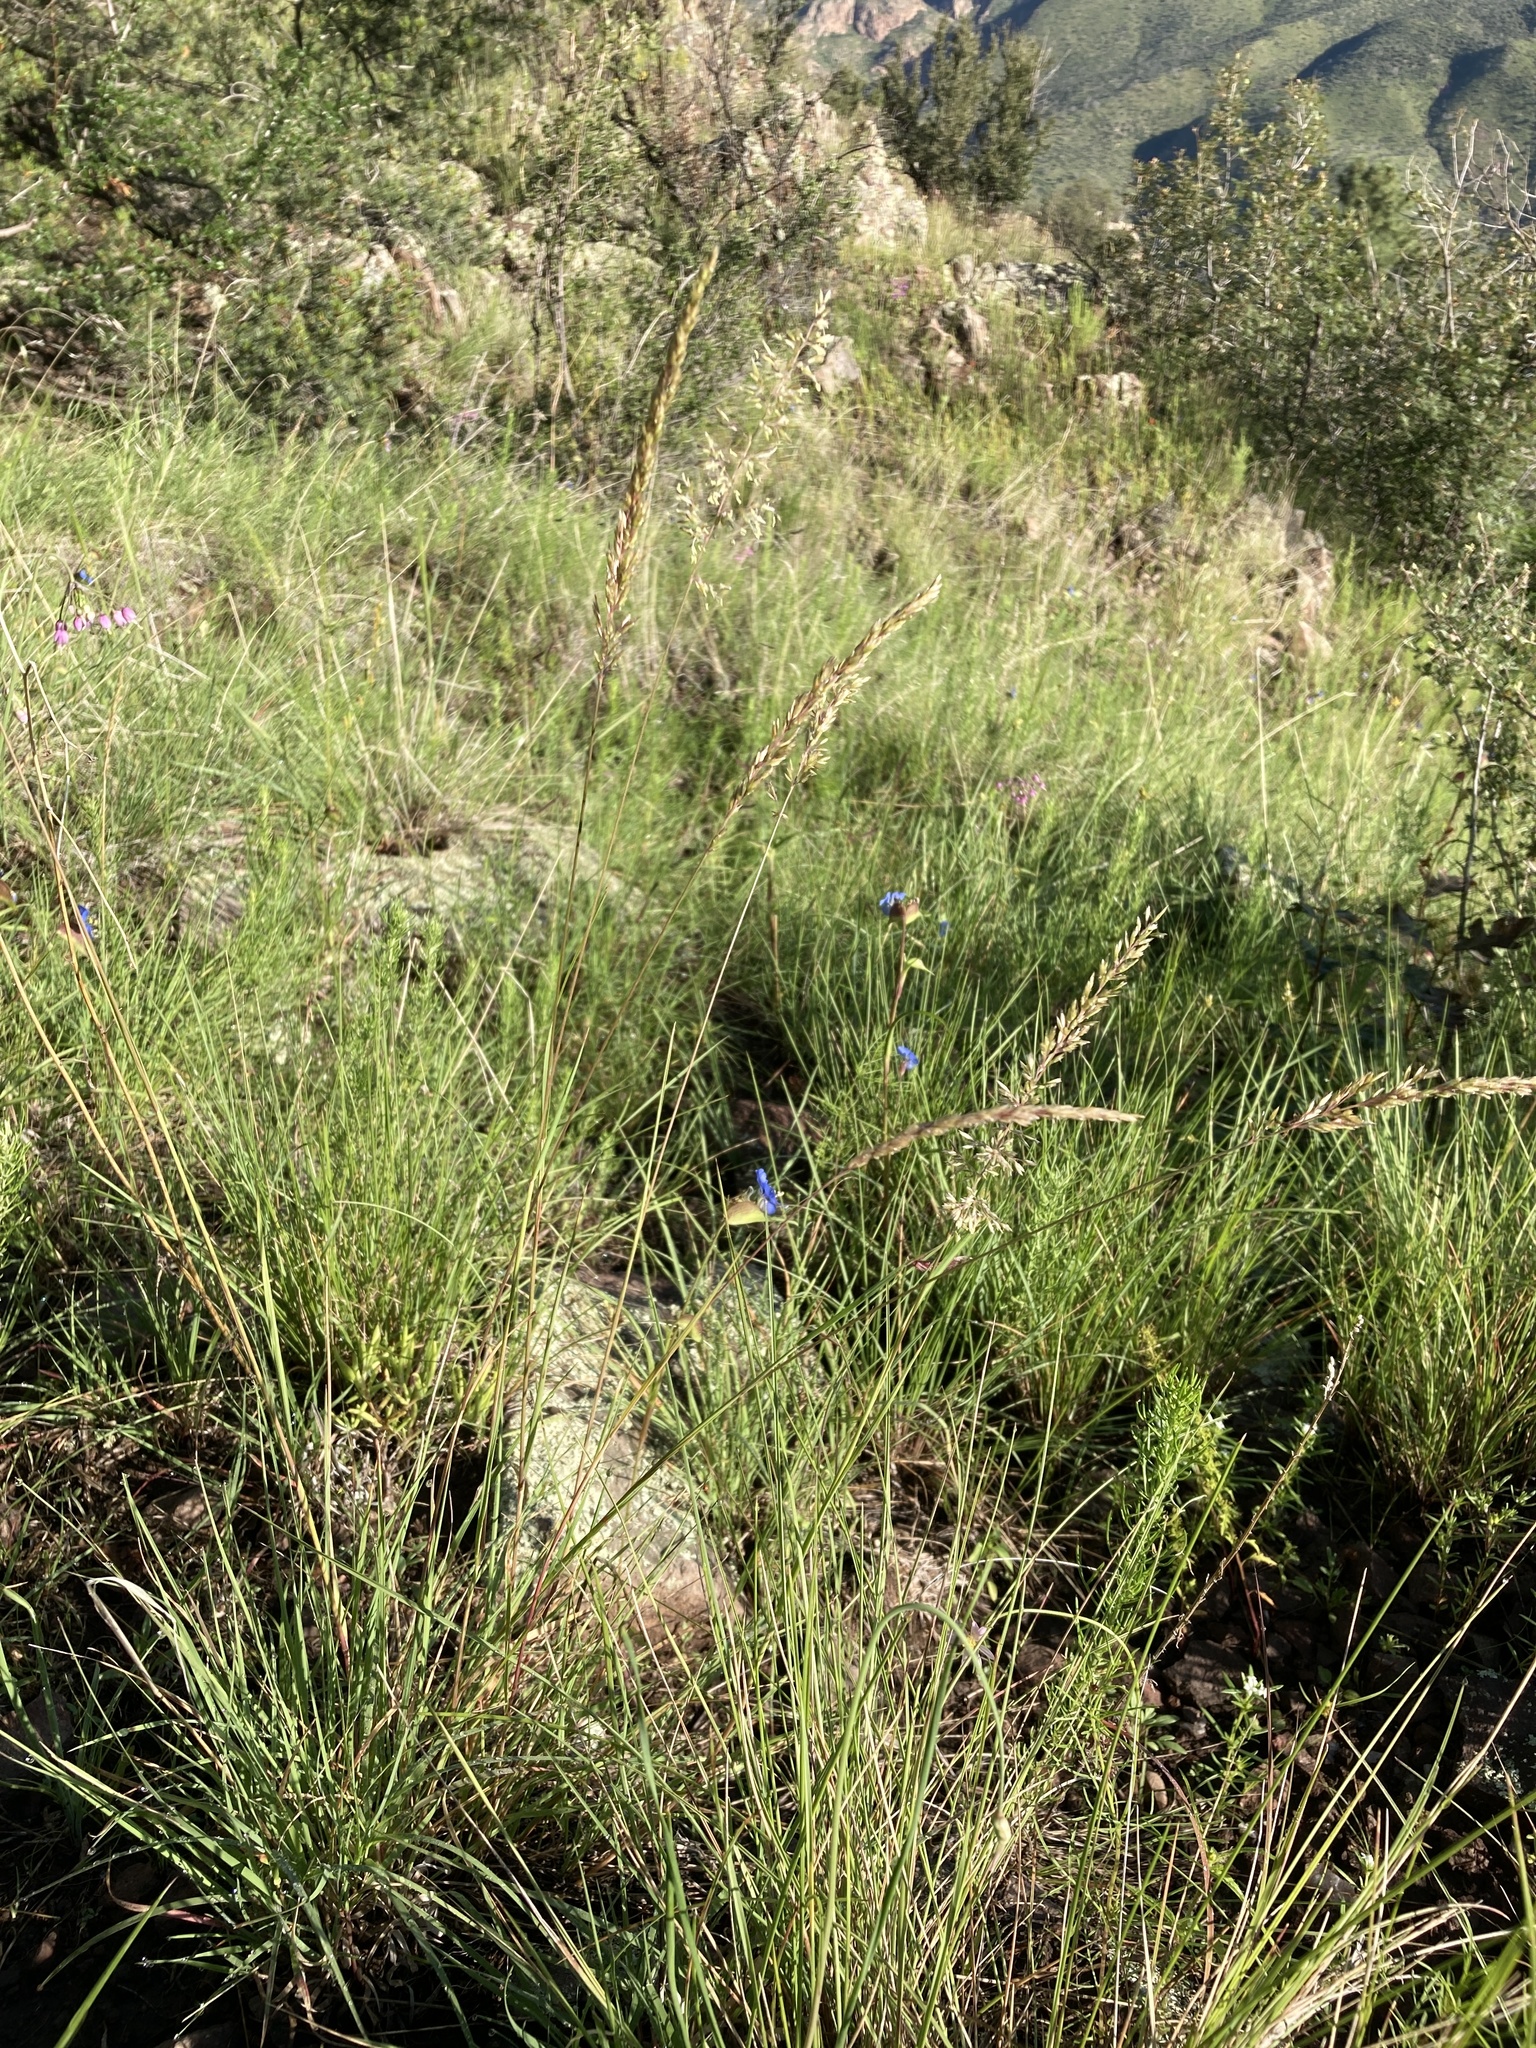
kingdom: Plantae
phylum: Tracheophyta
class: Liliopsida
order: Poales
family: Poaceae
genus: Koeleria
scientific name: Koeleria macrantha
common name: Crested hair-grass
